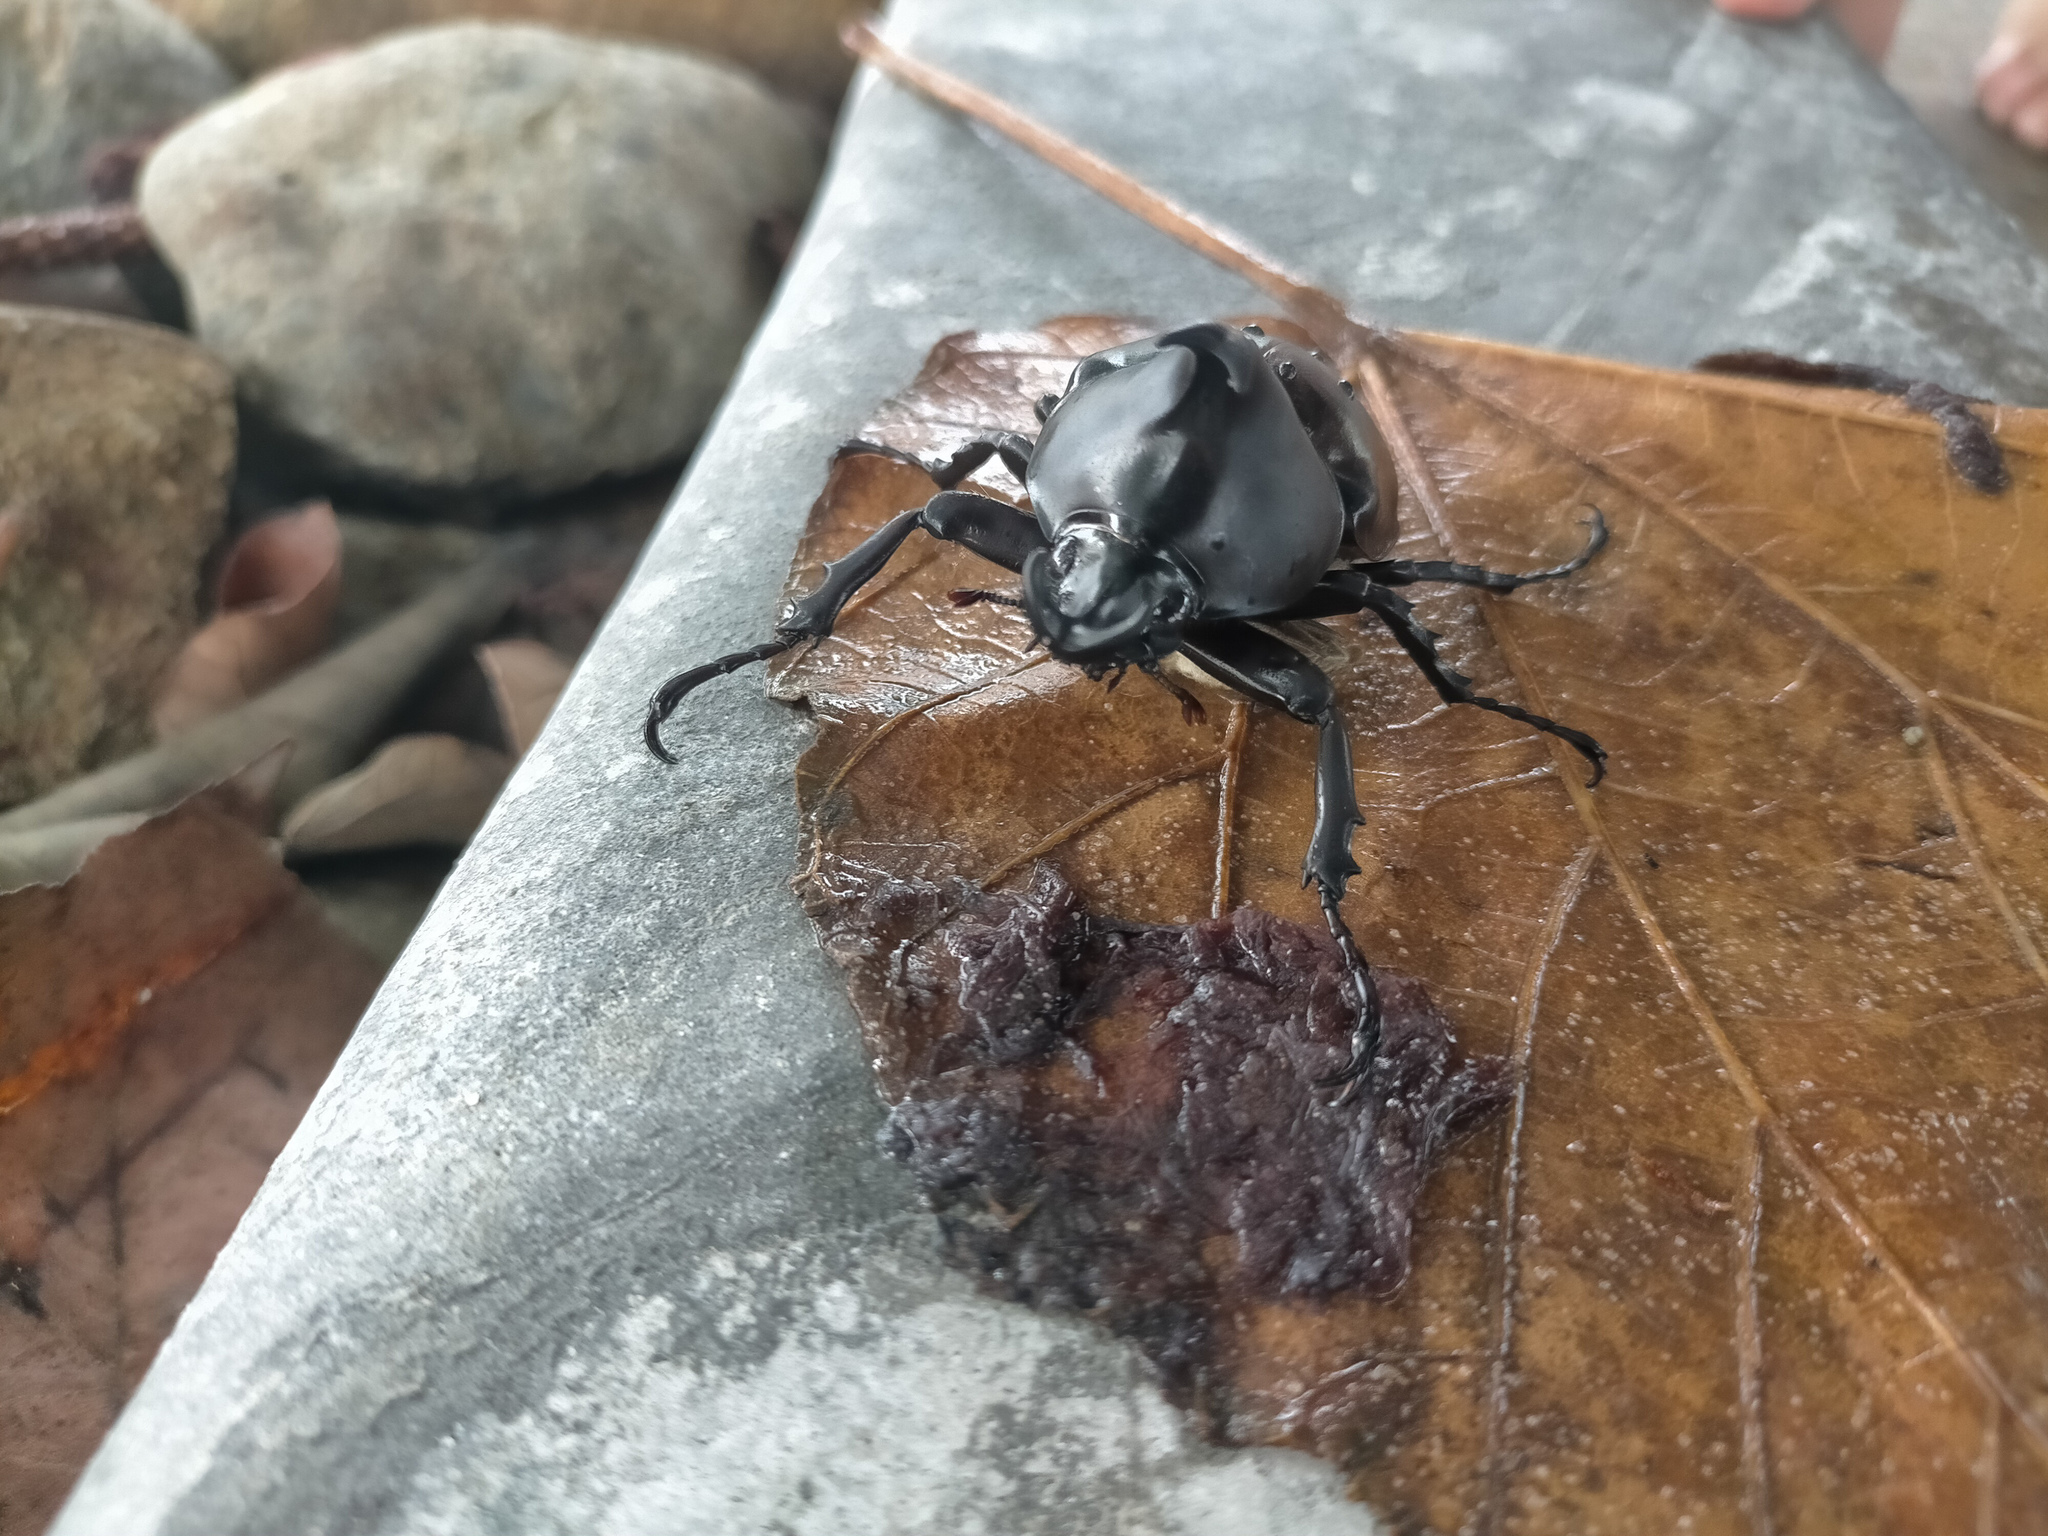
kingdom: Animalia
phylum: Arthropoda
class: Insecta
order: Coleoptera
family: Scarabaeidae
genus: Xylotrupes
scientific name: Xylotrupes australicus
